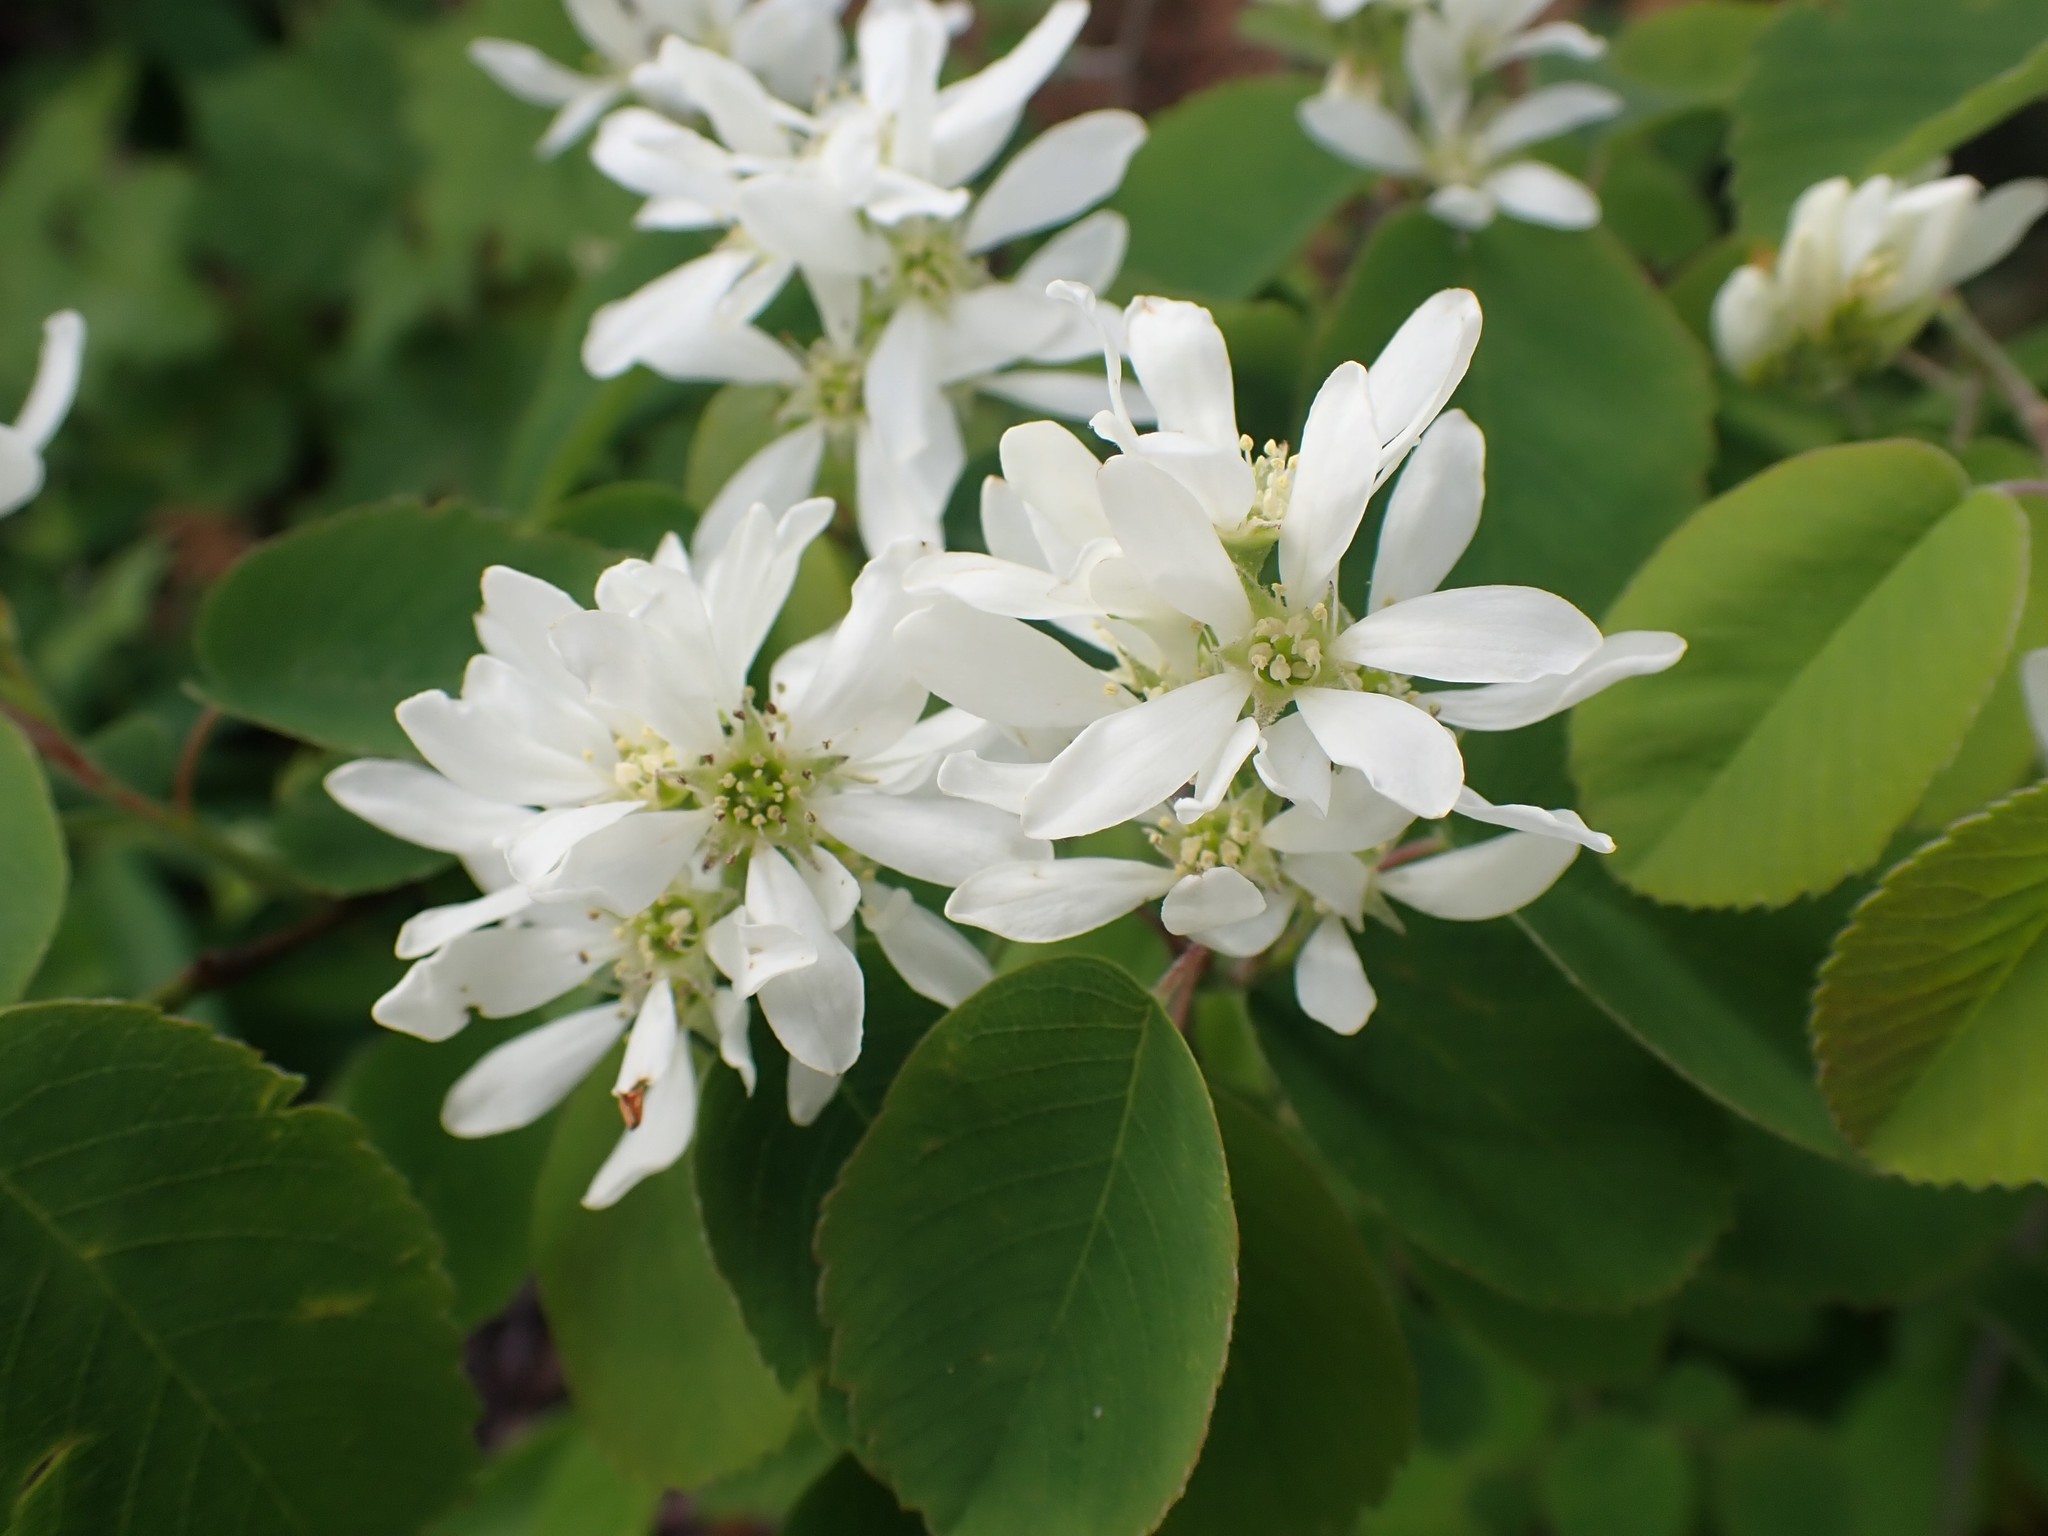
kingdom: Plantae
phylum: Tracheophyta
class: Magnoliopsida
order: Rosales
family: Rosaceae
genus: Amelanchier
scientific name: Amelanchier alnifolia
